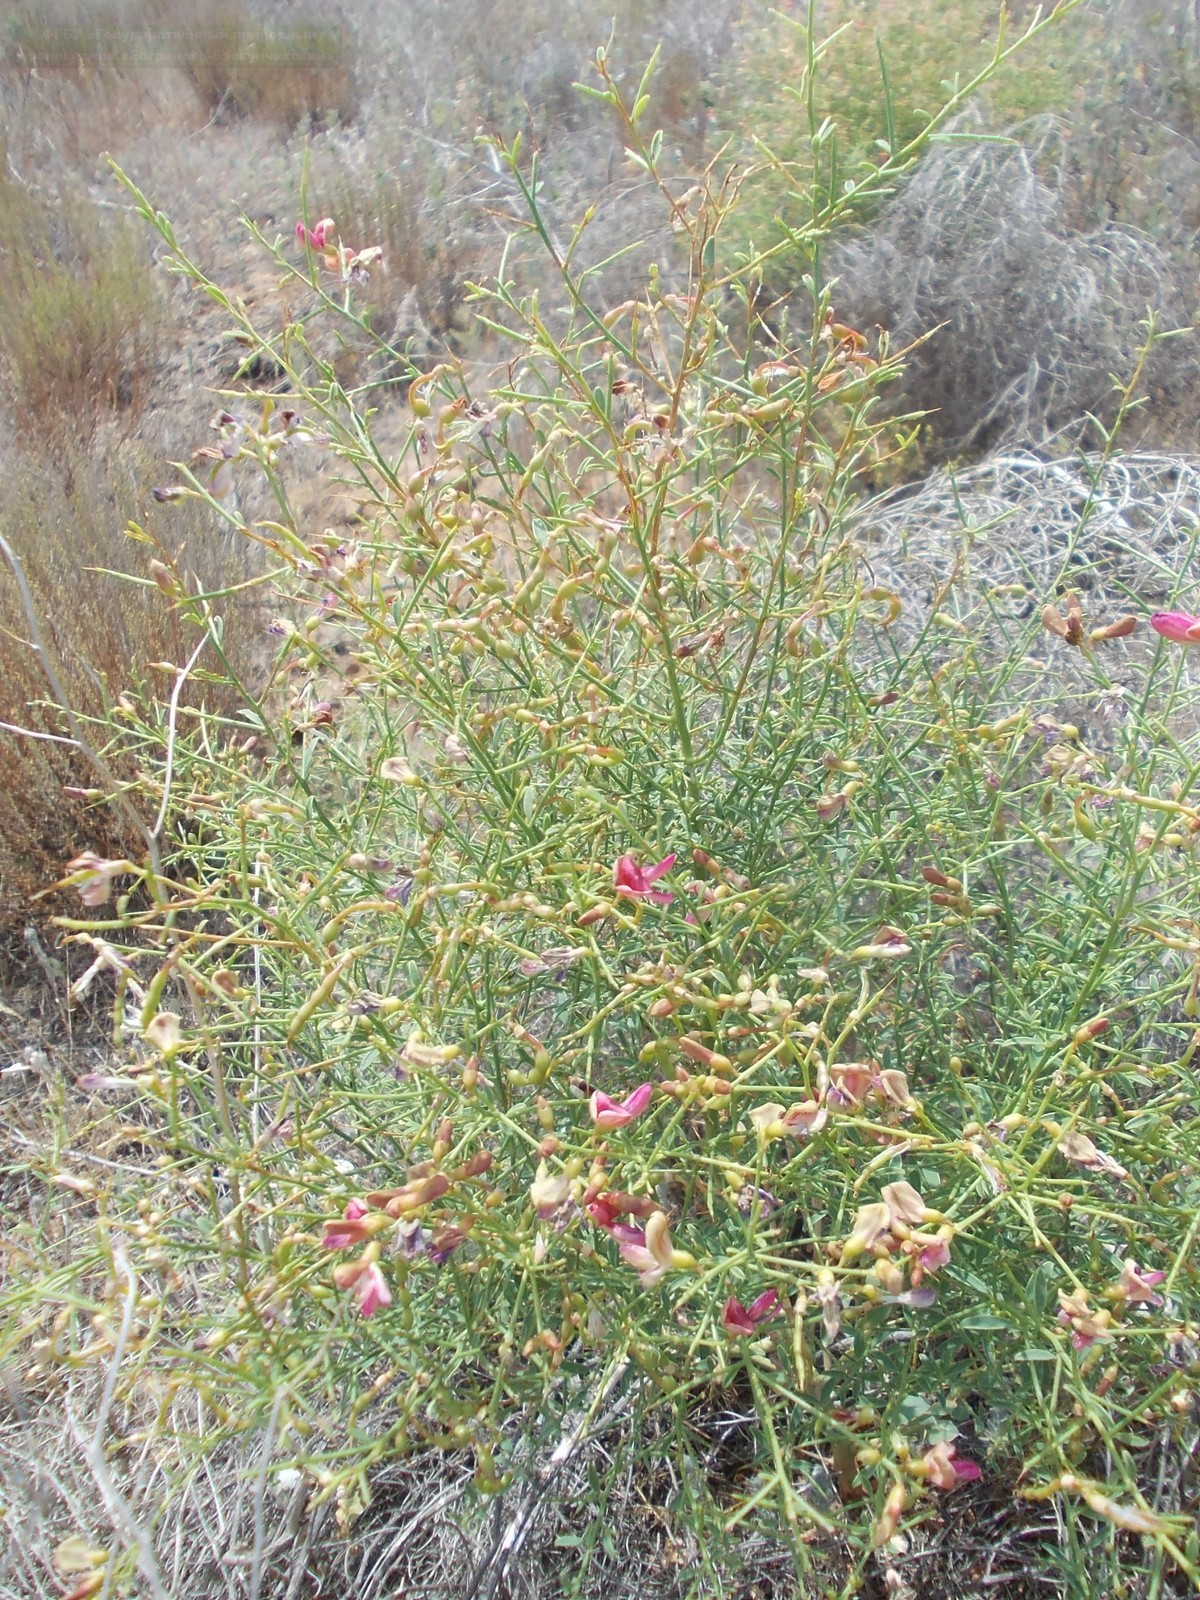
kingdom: Plantae
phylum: Tracheophyta
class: Magnoliopsida
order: Fabales
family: Fabaceae
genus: Alhagi
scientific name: Alhagi pseudalhagi
